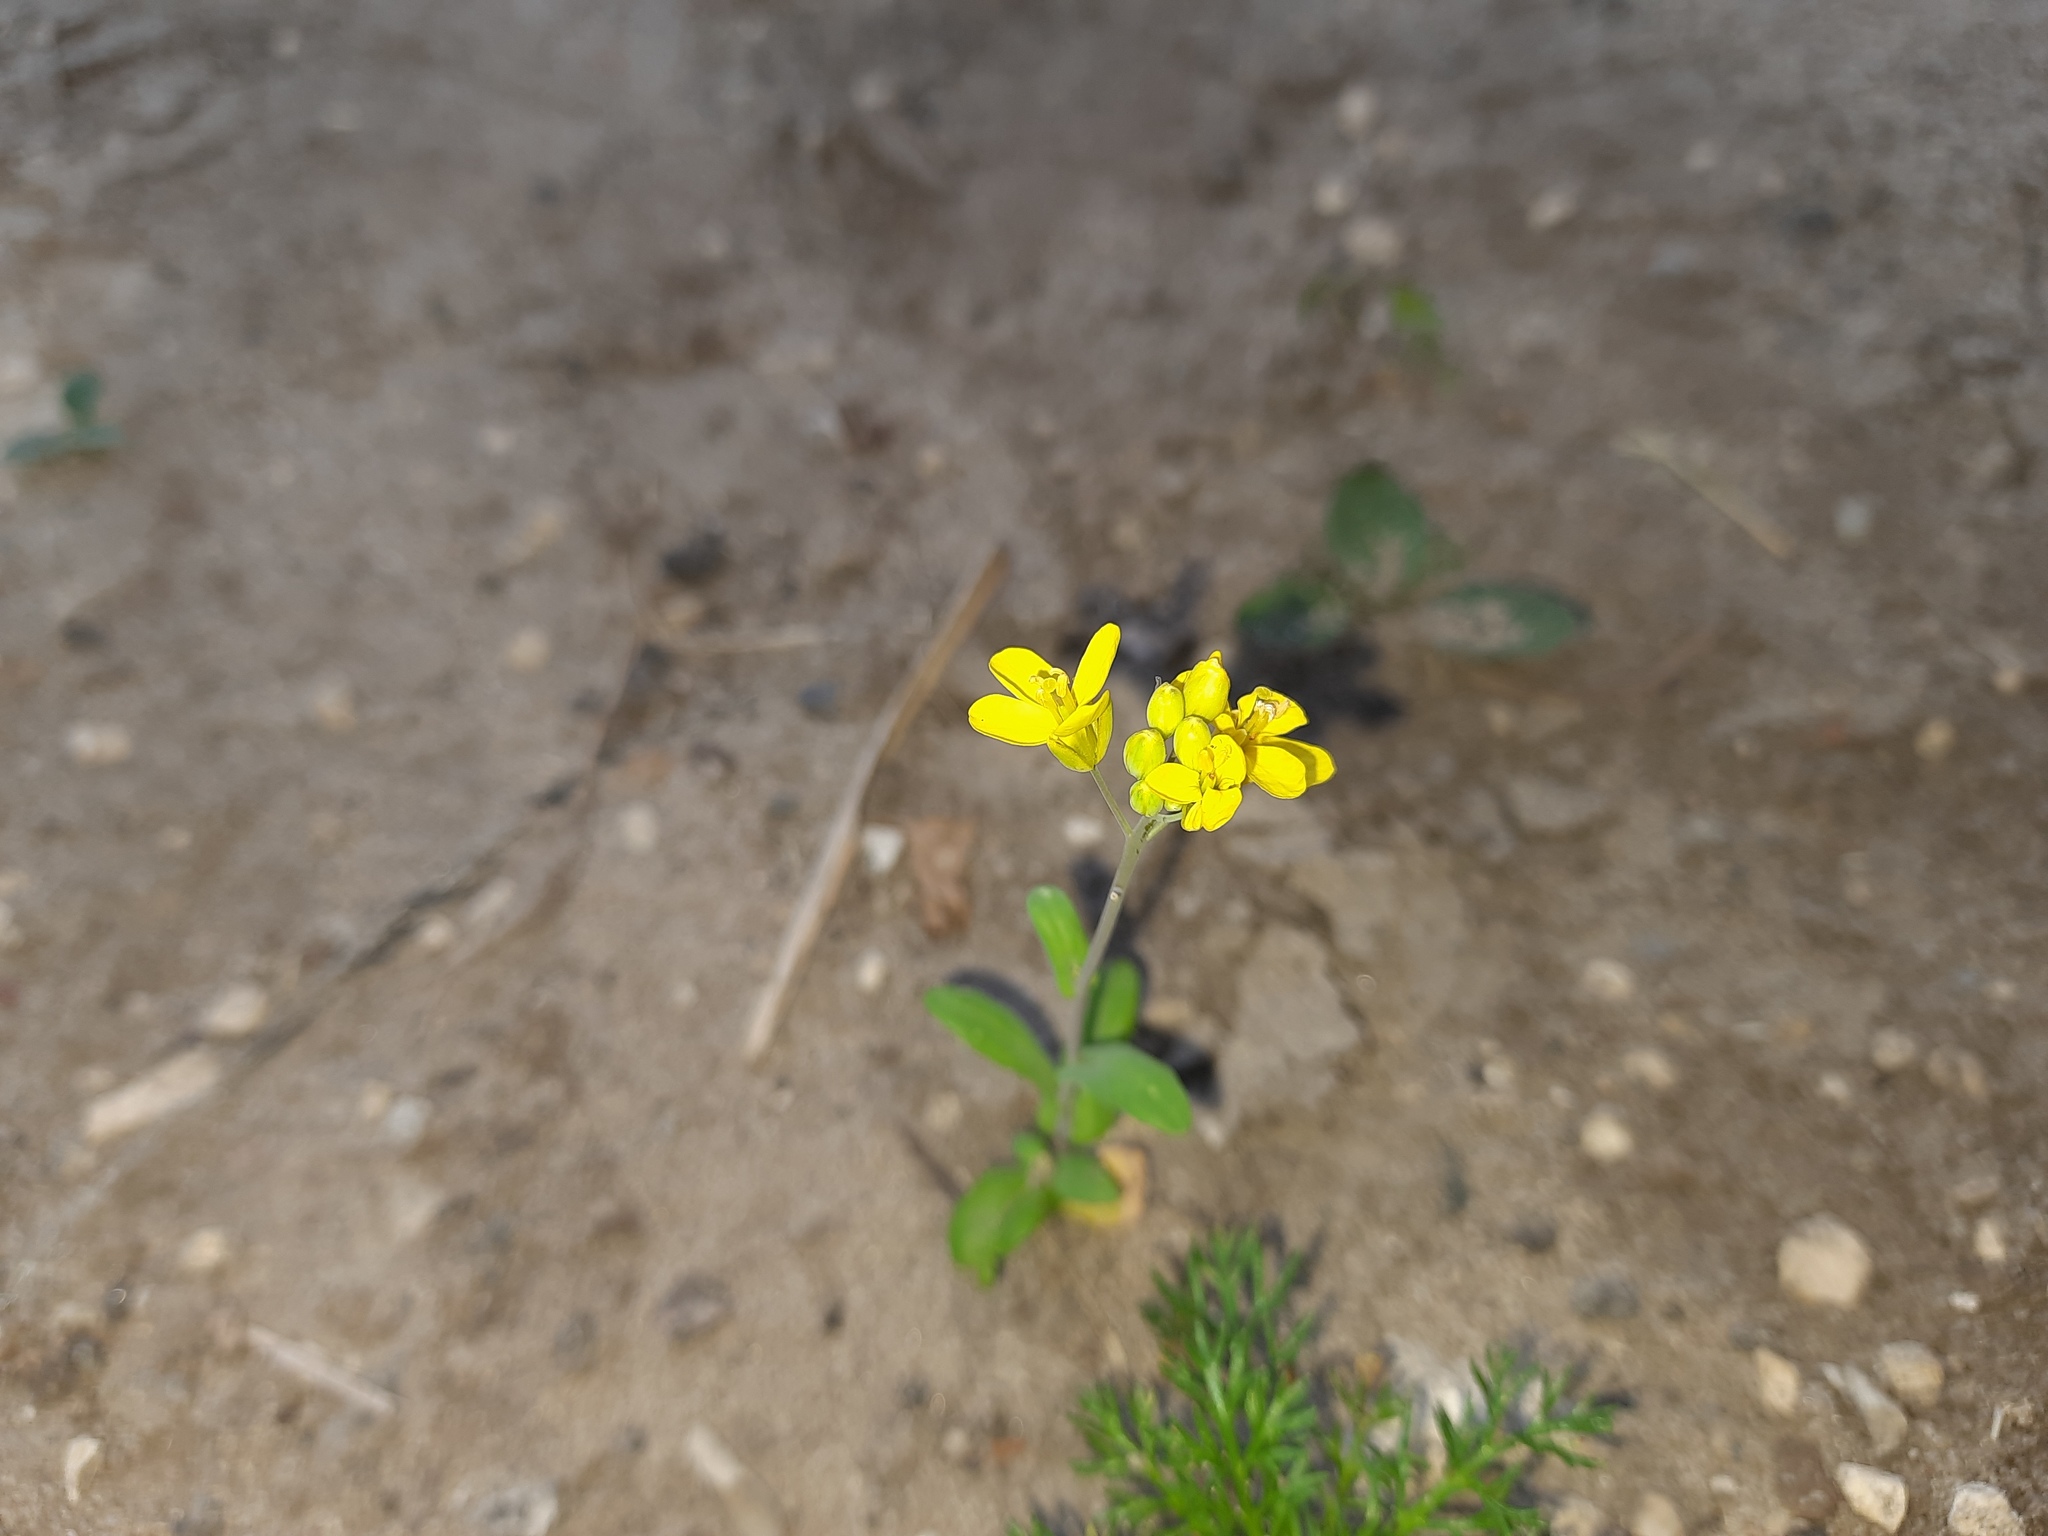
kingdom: Plantae
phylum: Tracheophyta
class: Magnoliopsida
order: Brassicales
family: Brassicaceae
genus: Brassica
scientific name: Brassica rapa
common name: Field mustard
